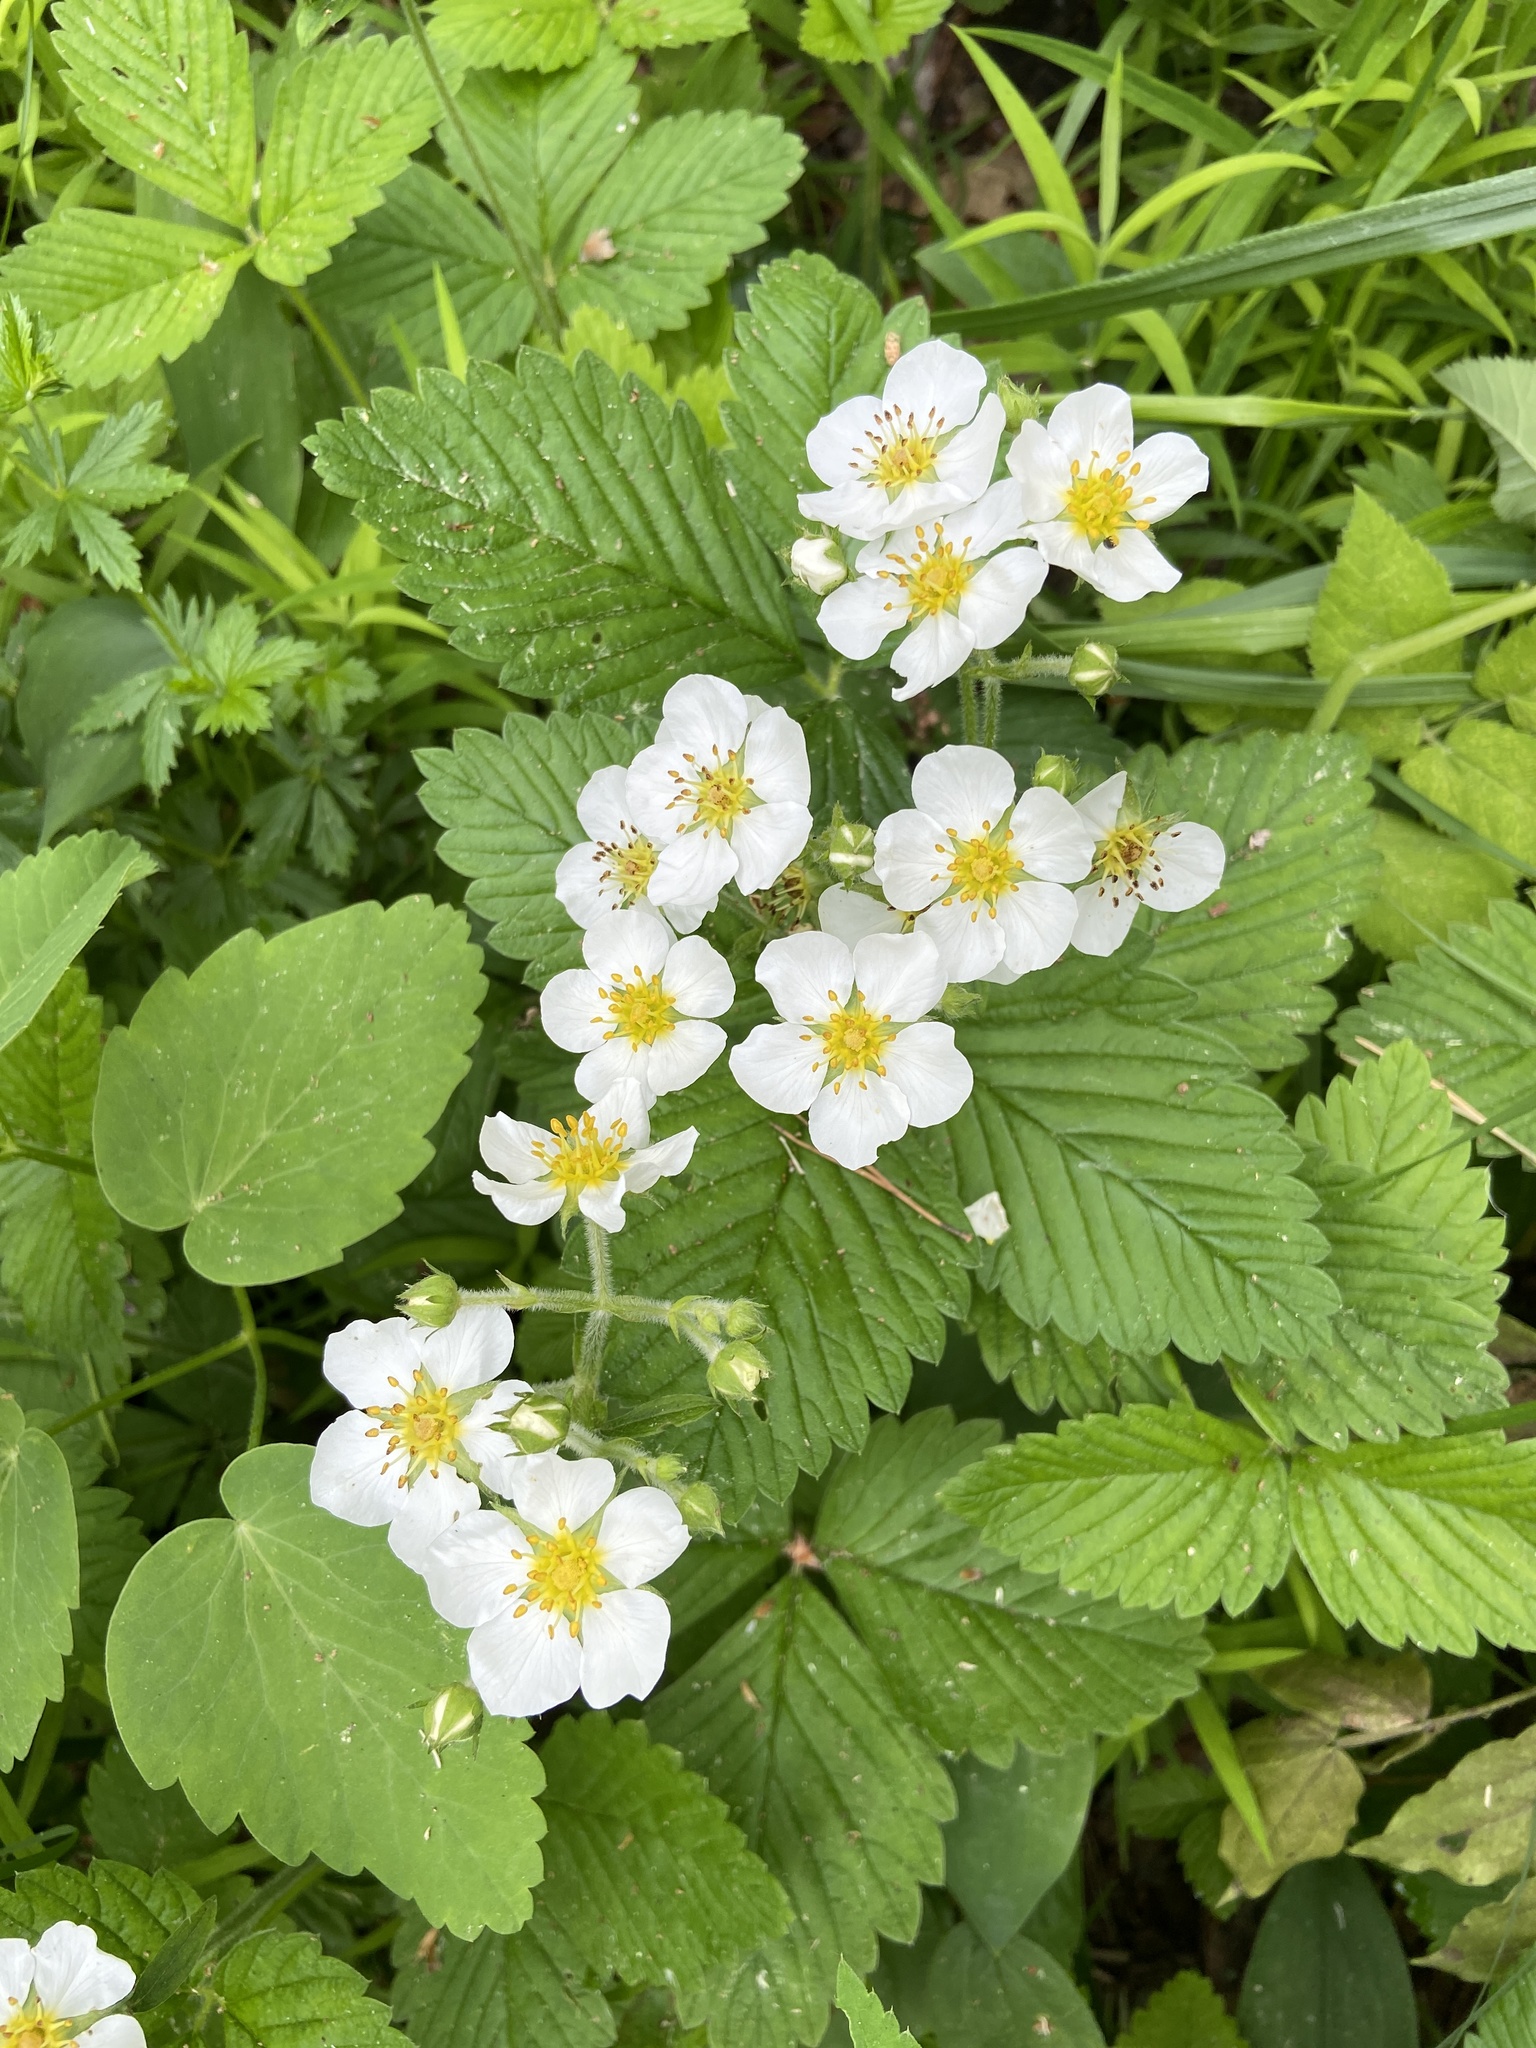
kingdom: Plantae
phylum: Tracheophyta
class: Magnoliopsida
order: Rosales
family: Rosaceae
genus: Fragaria
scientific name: Fragaria moschata
